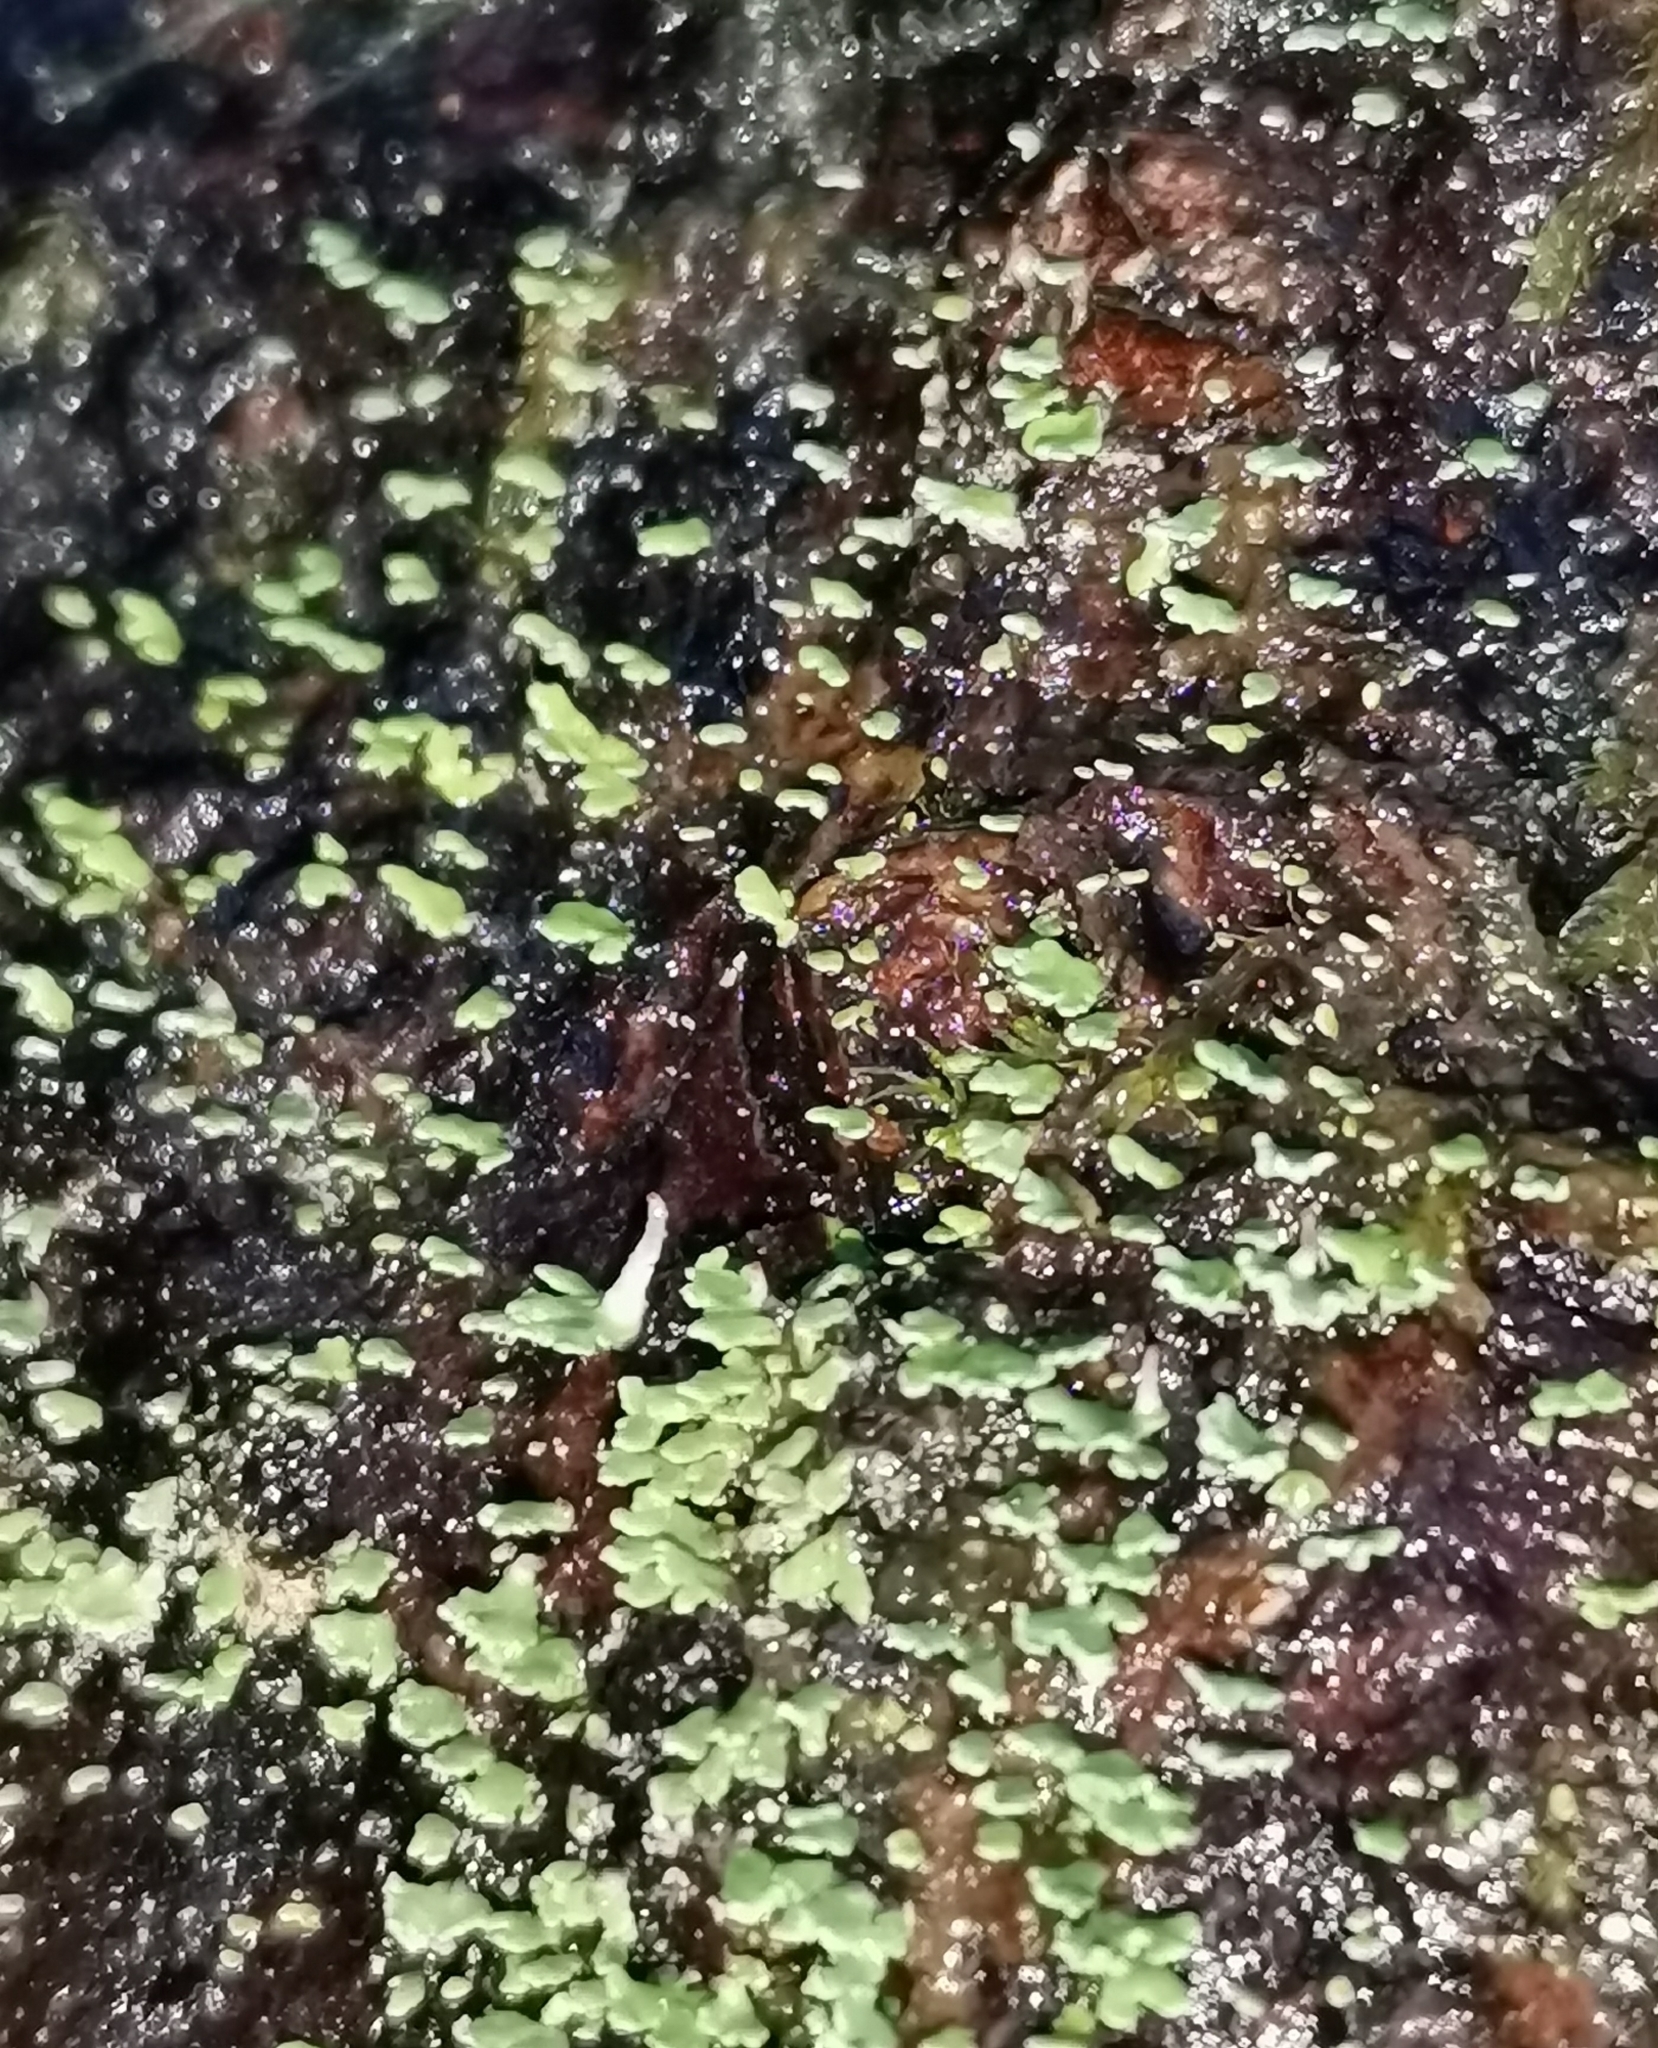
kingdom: Fungi
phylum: Ascomycota
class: Lecanoromycetes
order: Lecanorales
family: Cladoniaceae
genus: Cladonia
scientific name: Cladonia digitata
